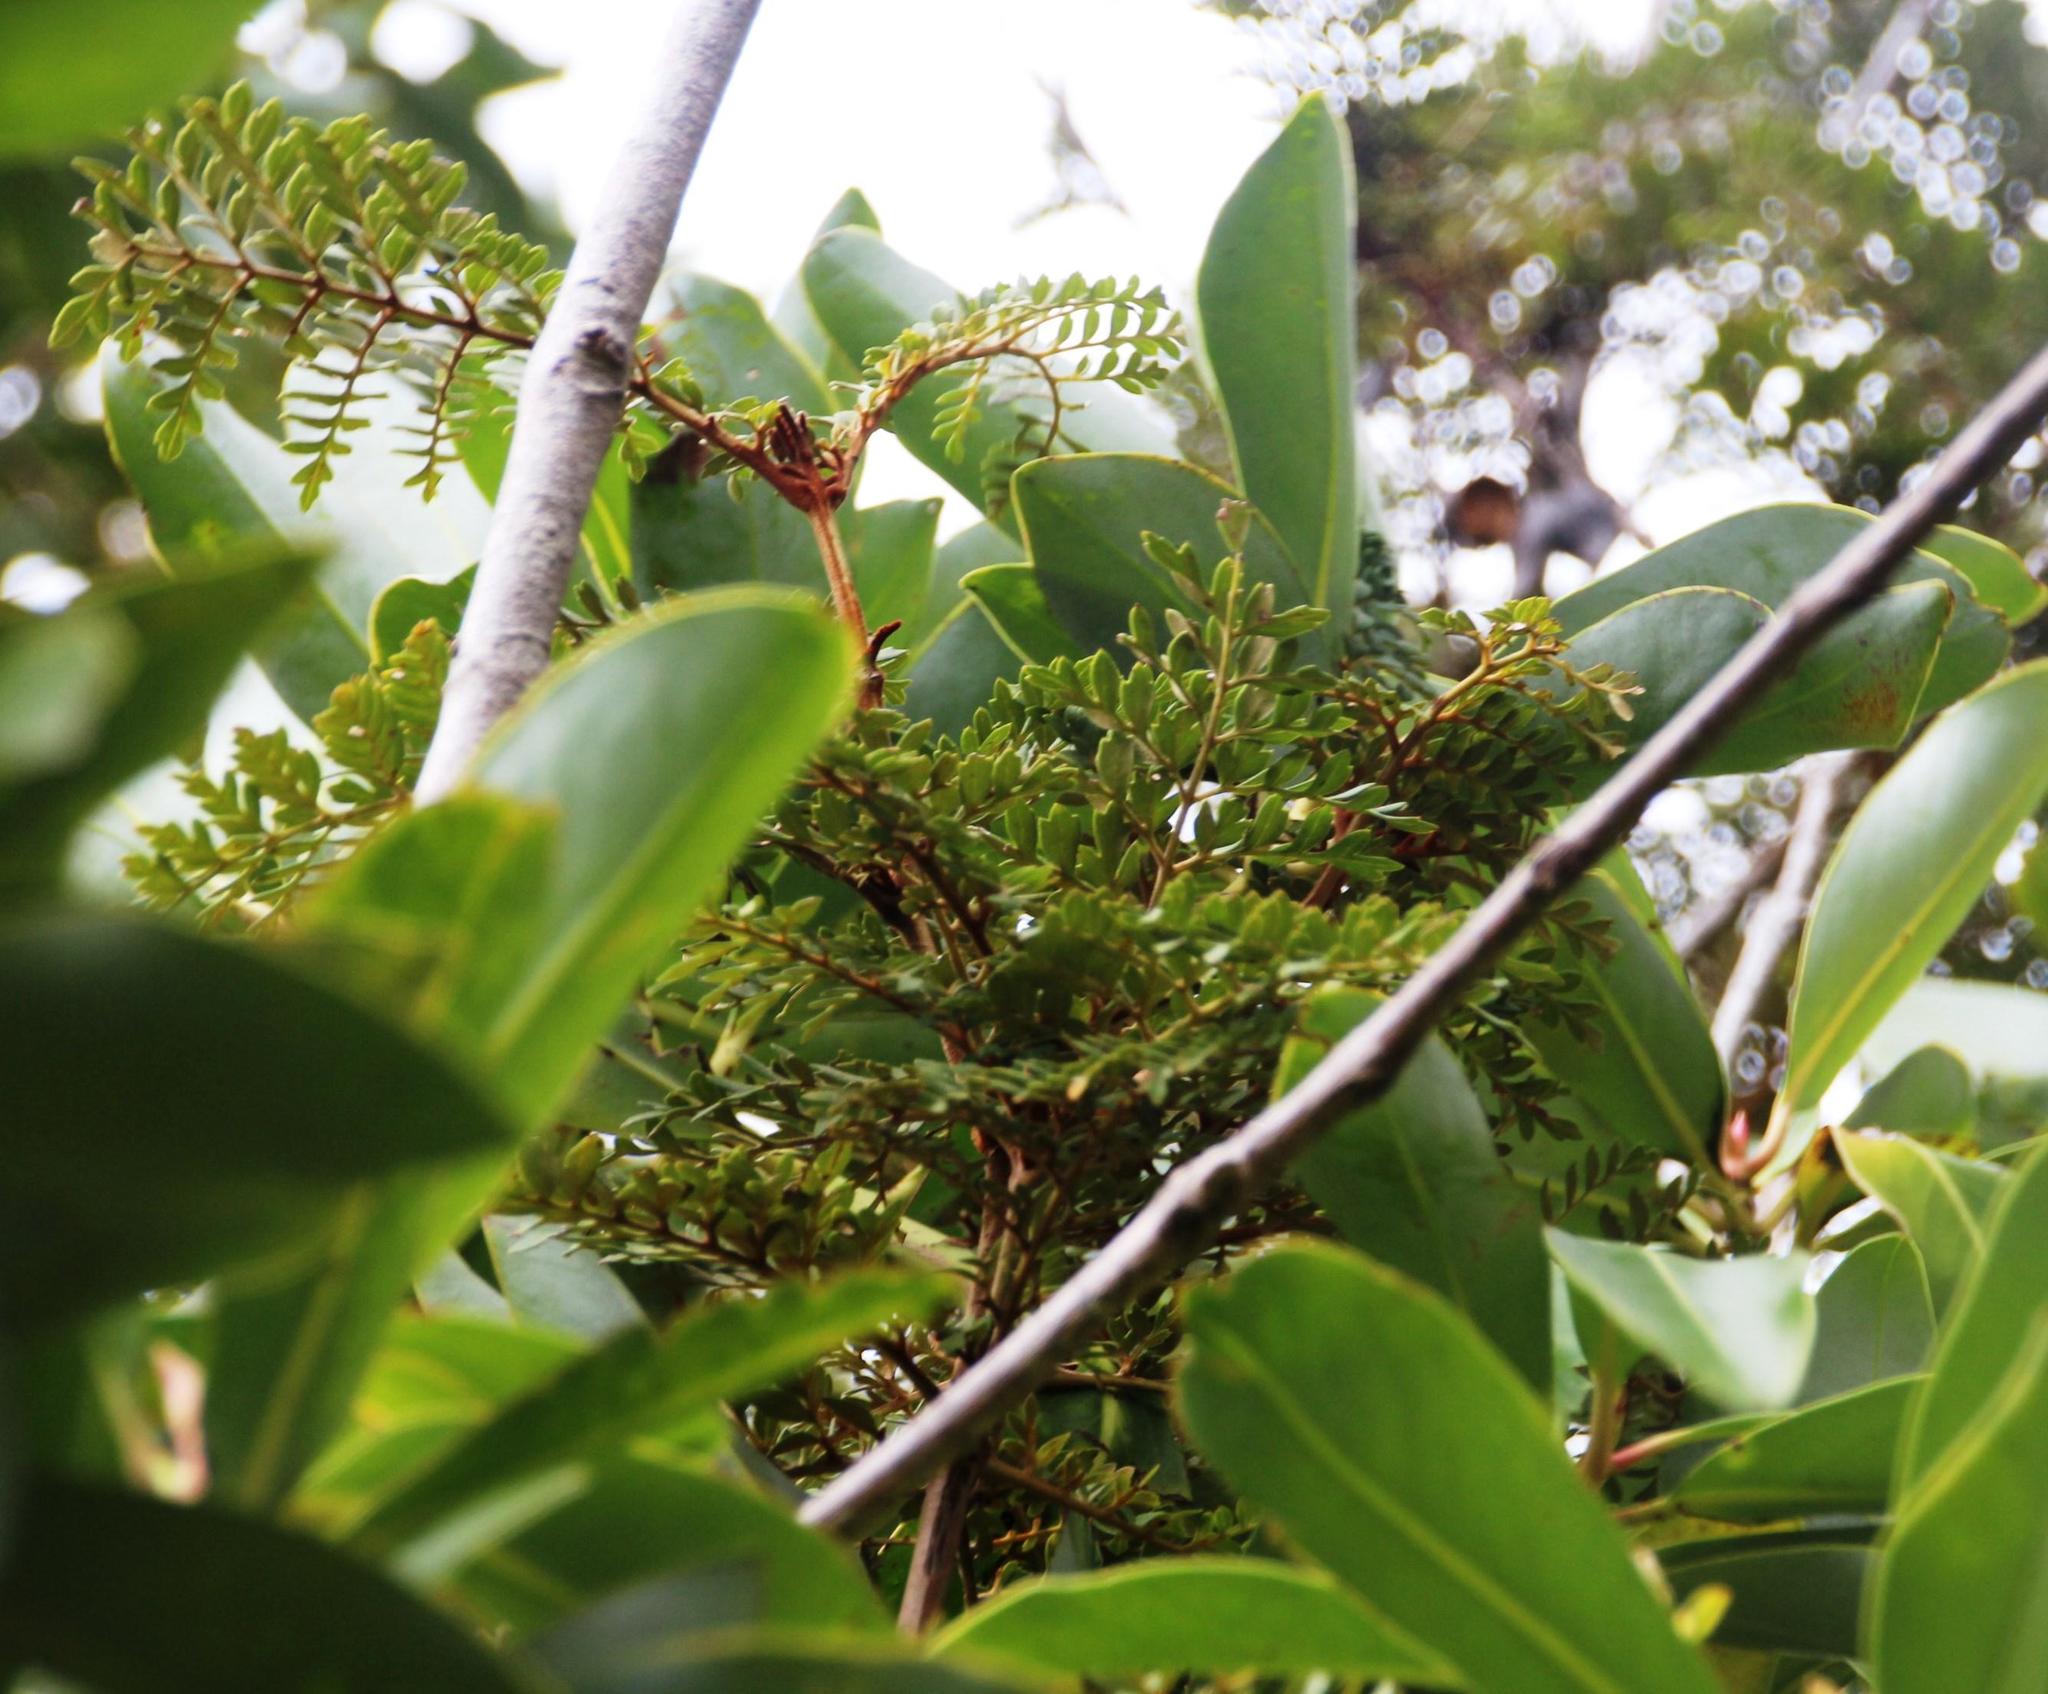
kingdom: Plantae
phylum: Tracheophyta
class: Magnoliopsida
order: Proteales
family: Proteaceae
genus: Lomatia
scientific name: Lomatia ferruginea
